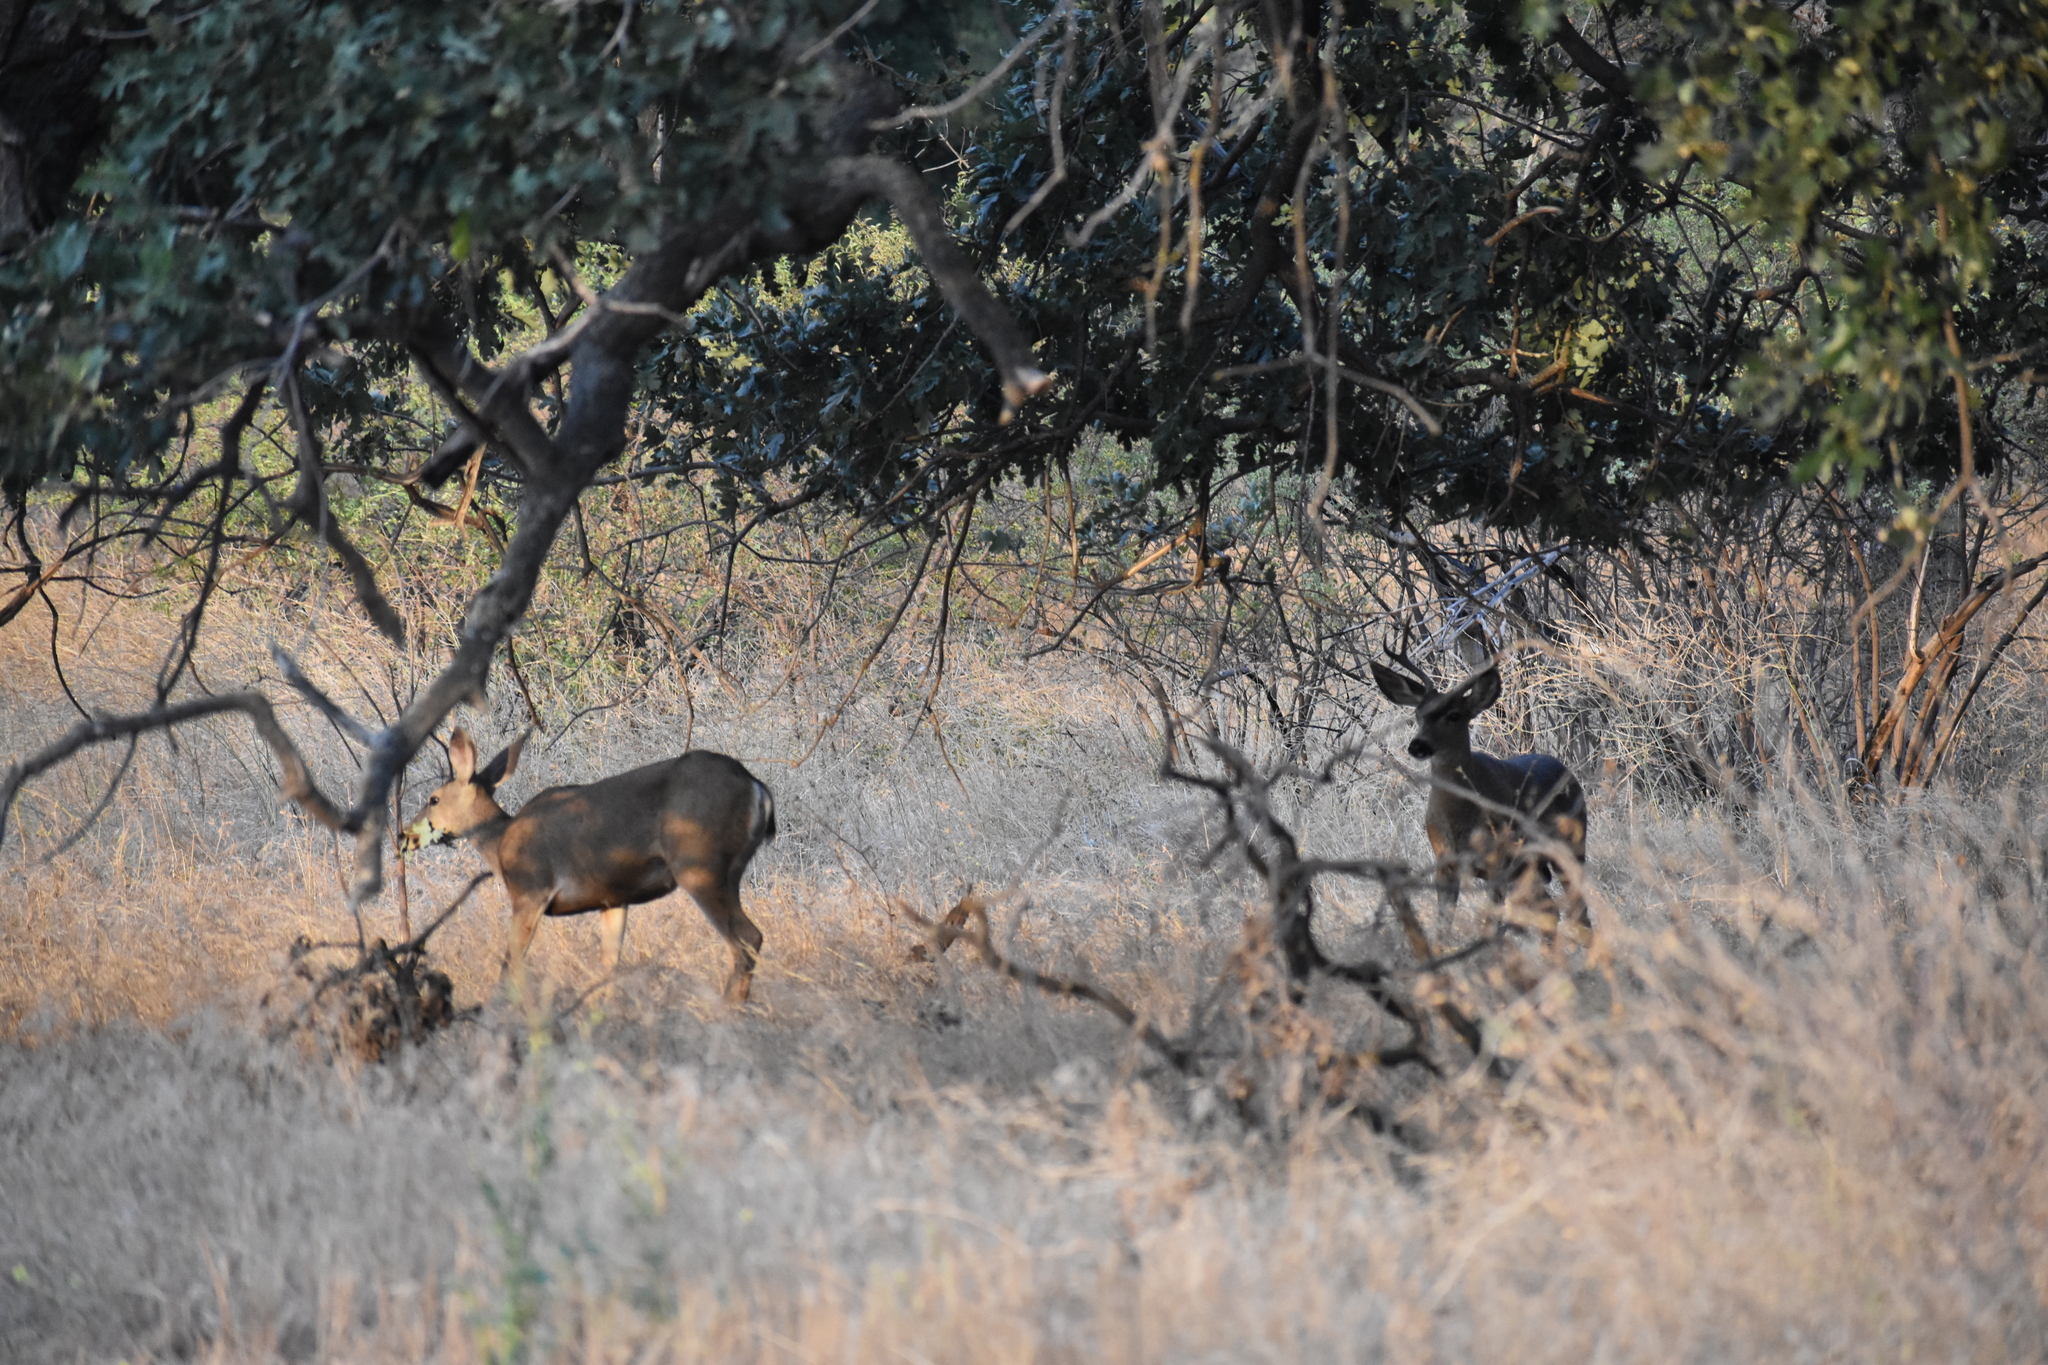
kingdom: Animalia
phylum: Chordata
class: Mammalia
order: Artiodactyla
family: Cervidae
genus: Odocoileus
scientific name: Odocoileus hemionus
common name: Mule deer
